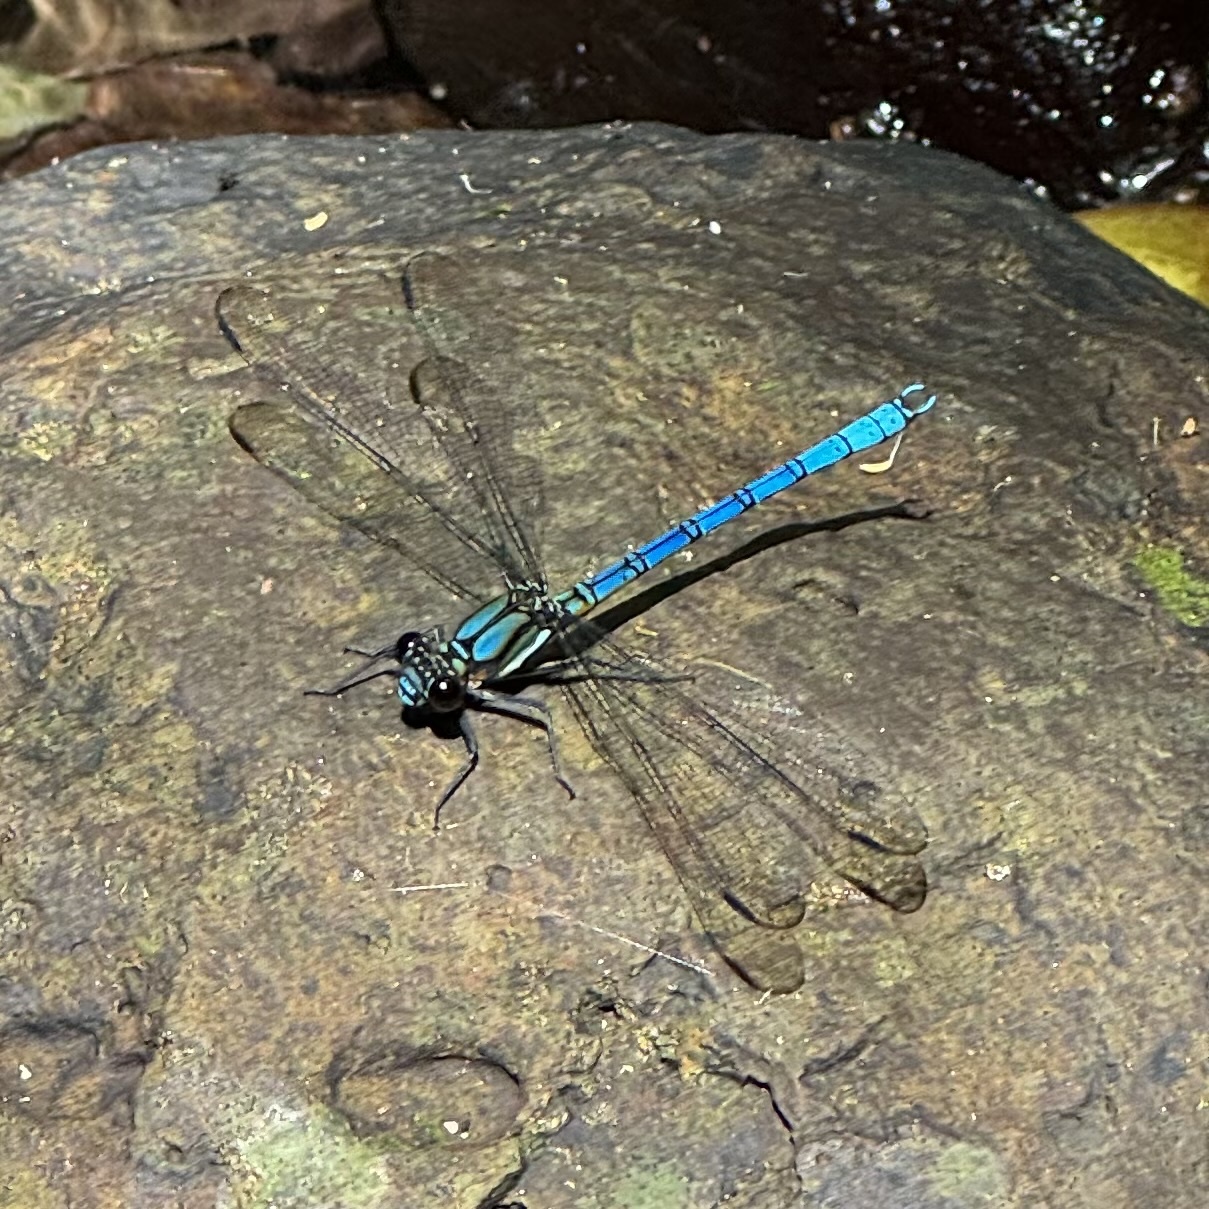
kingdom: Animalia
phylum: Arthropoda
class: Insecta
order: Odonata
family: Lestoideidae
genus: Diphlebia
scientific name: Diphlebia lestoides
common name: Whitewater rockmaster
